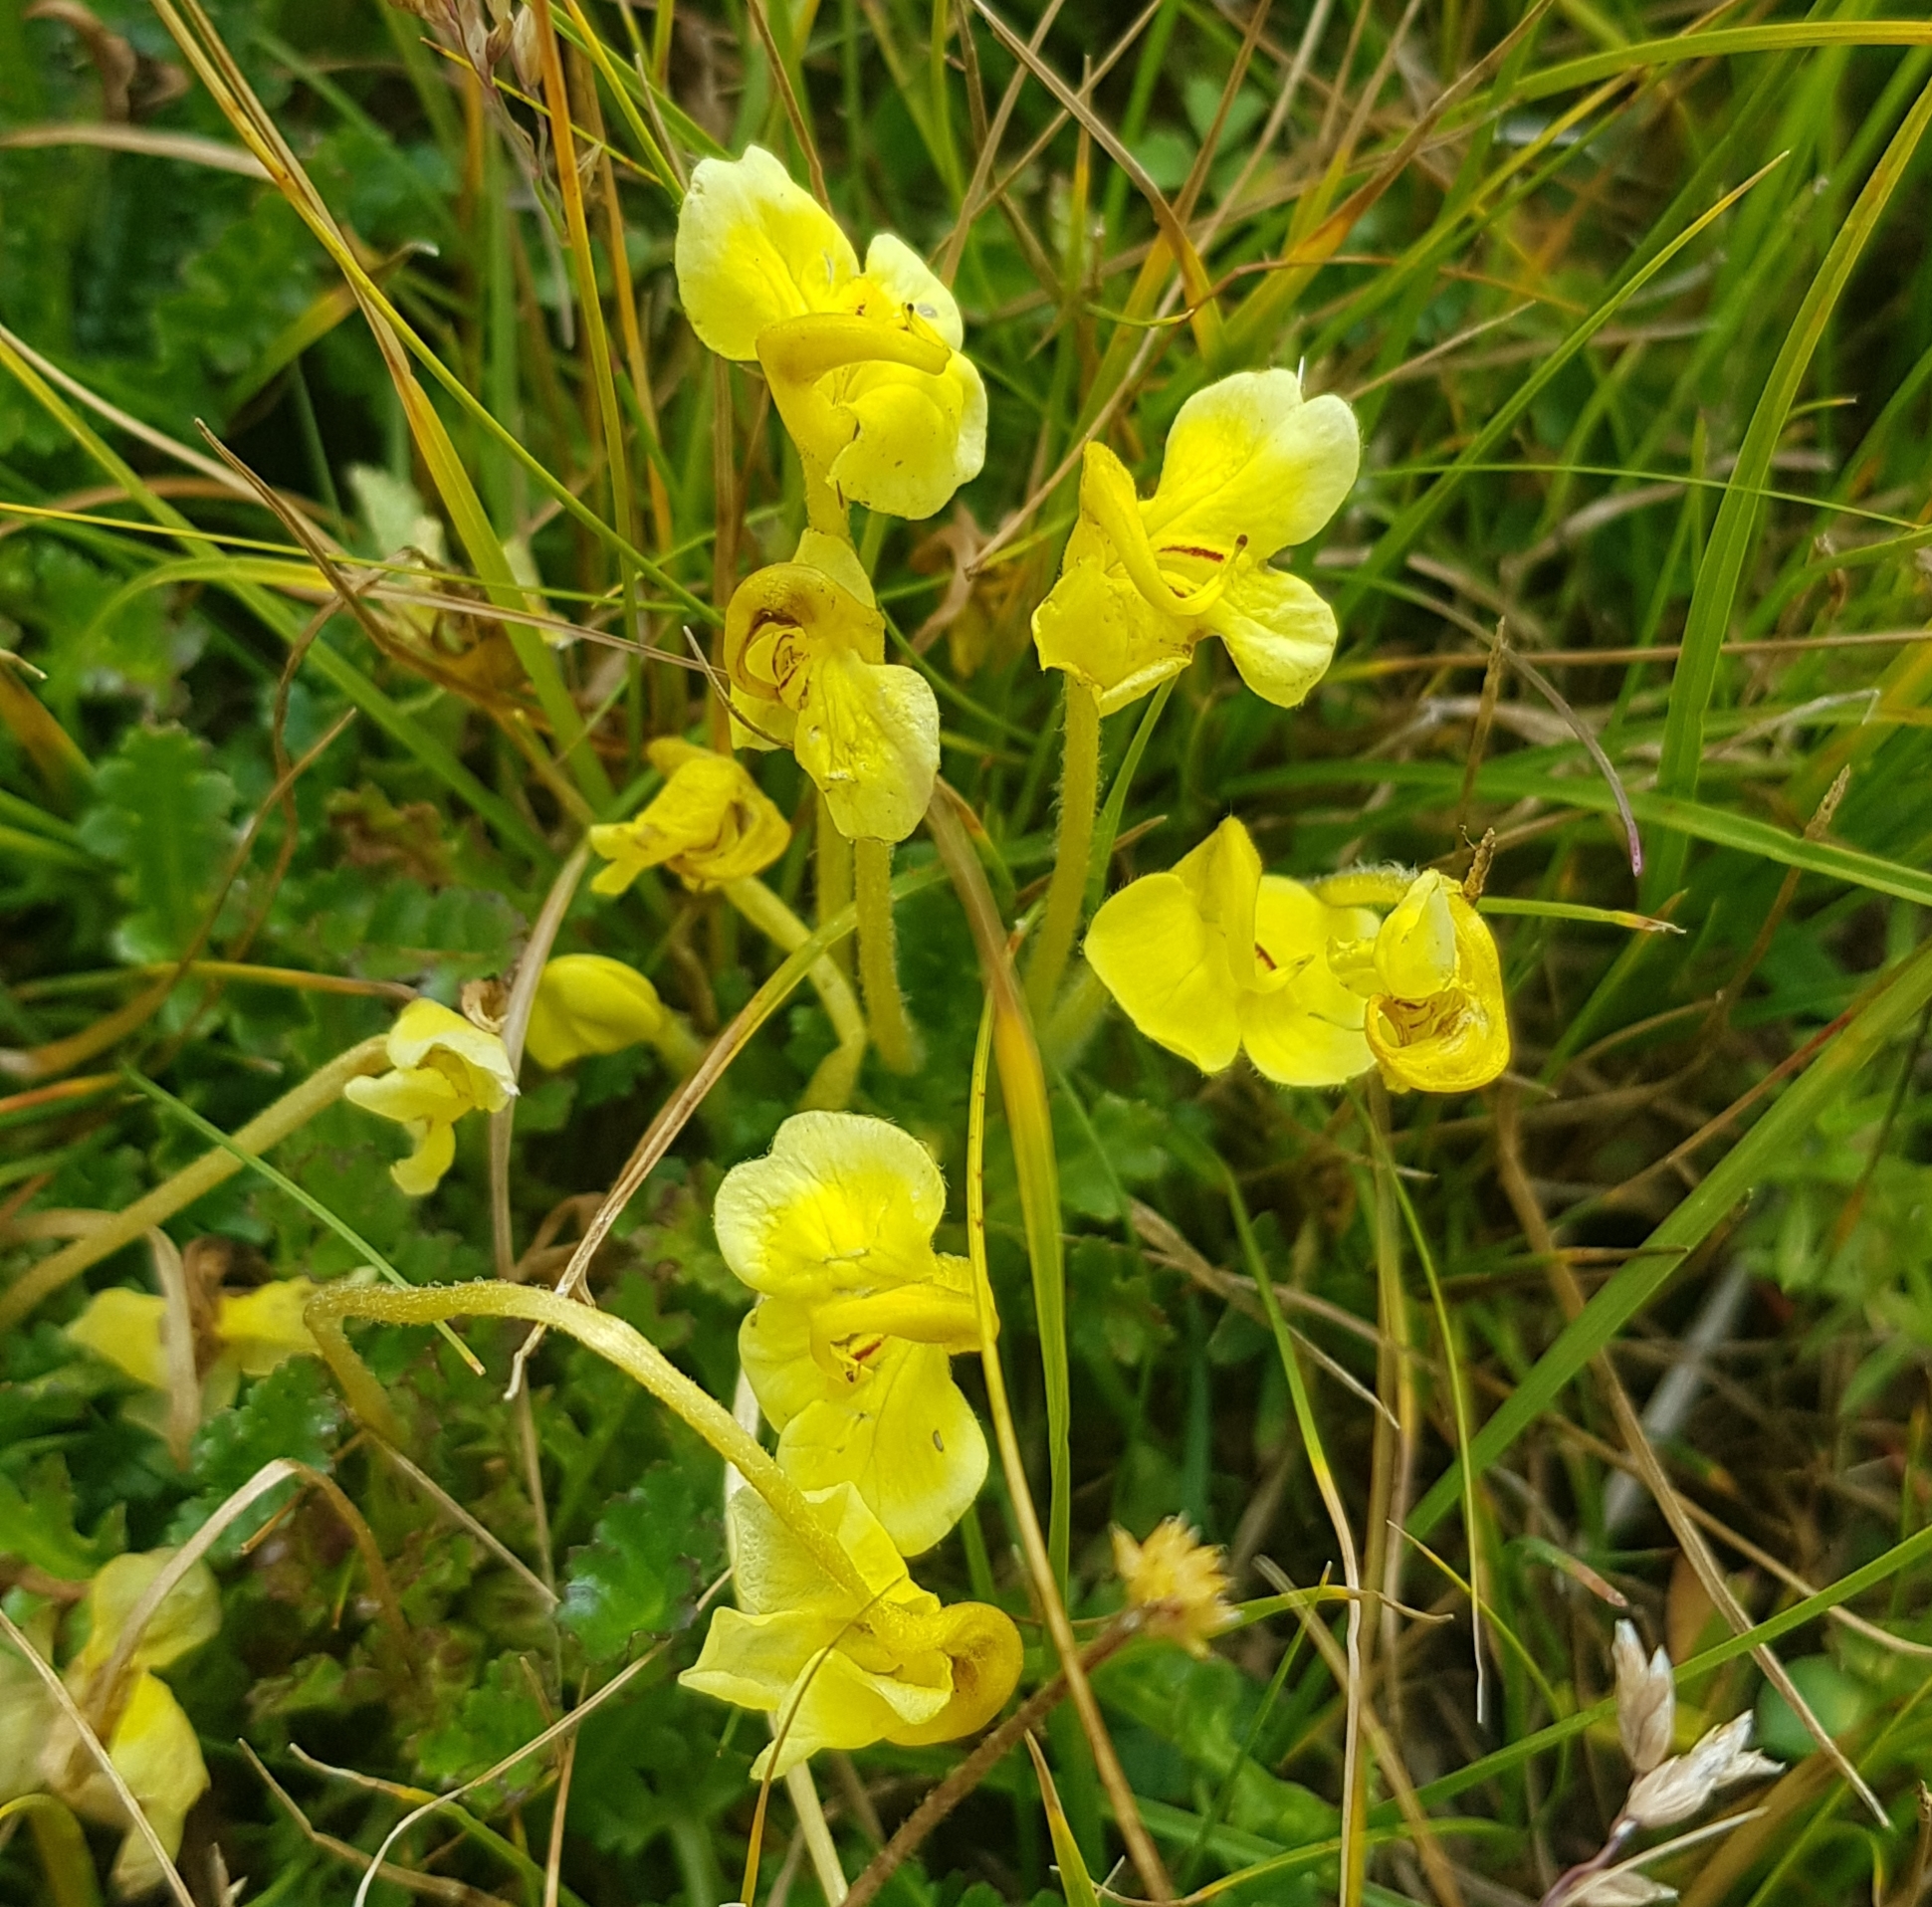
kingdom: Plantae
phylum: Tracheophyta
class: Magnoliopsida
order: Lamiales
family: Orobanchaceae
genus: Pedicularis
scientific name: Pedicularis longiflora
